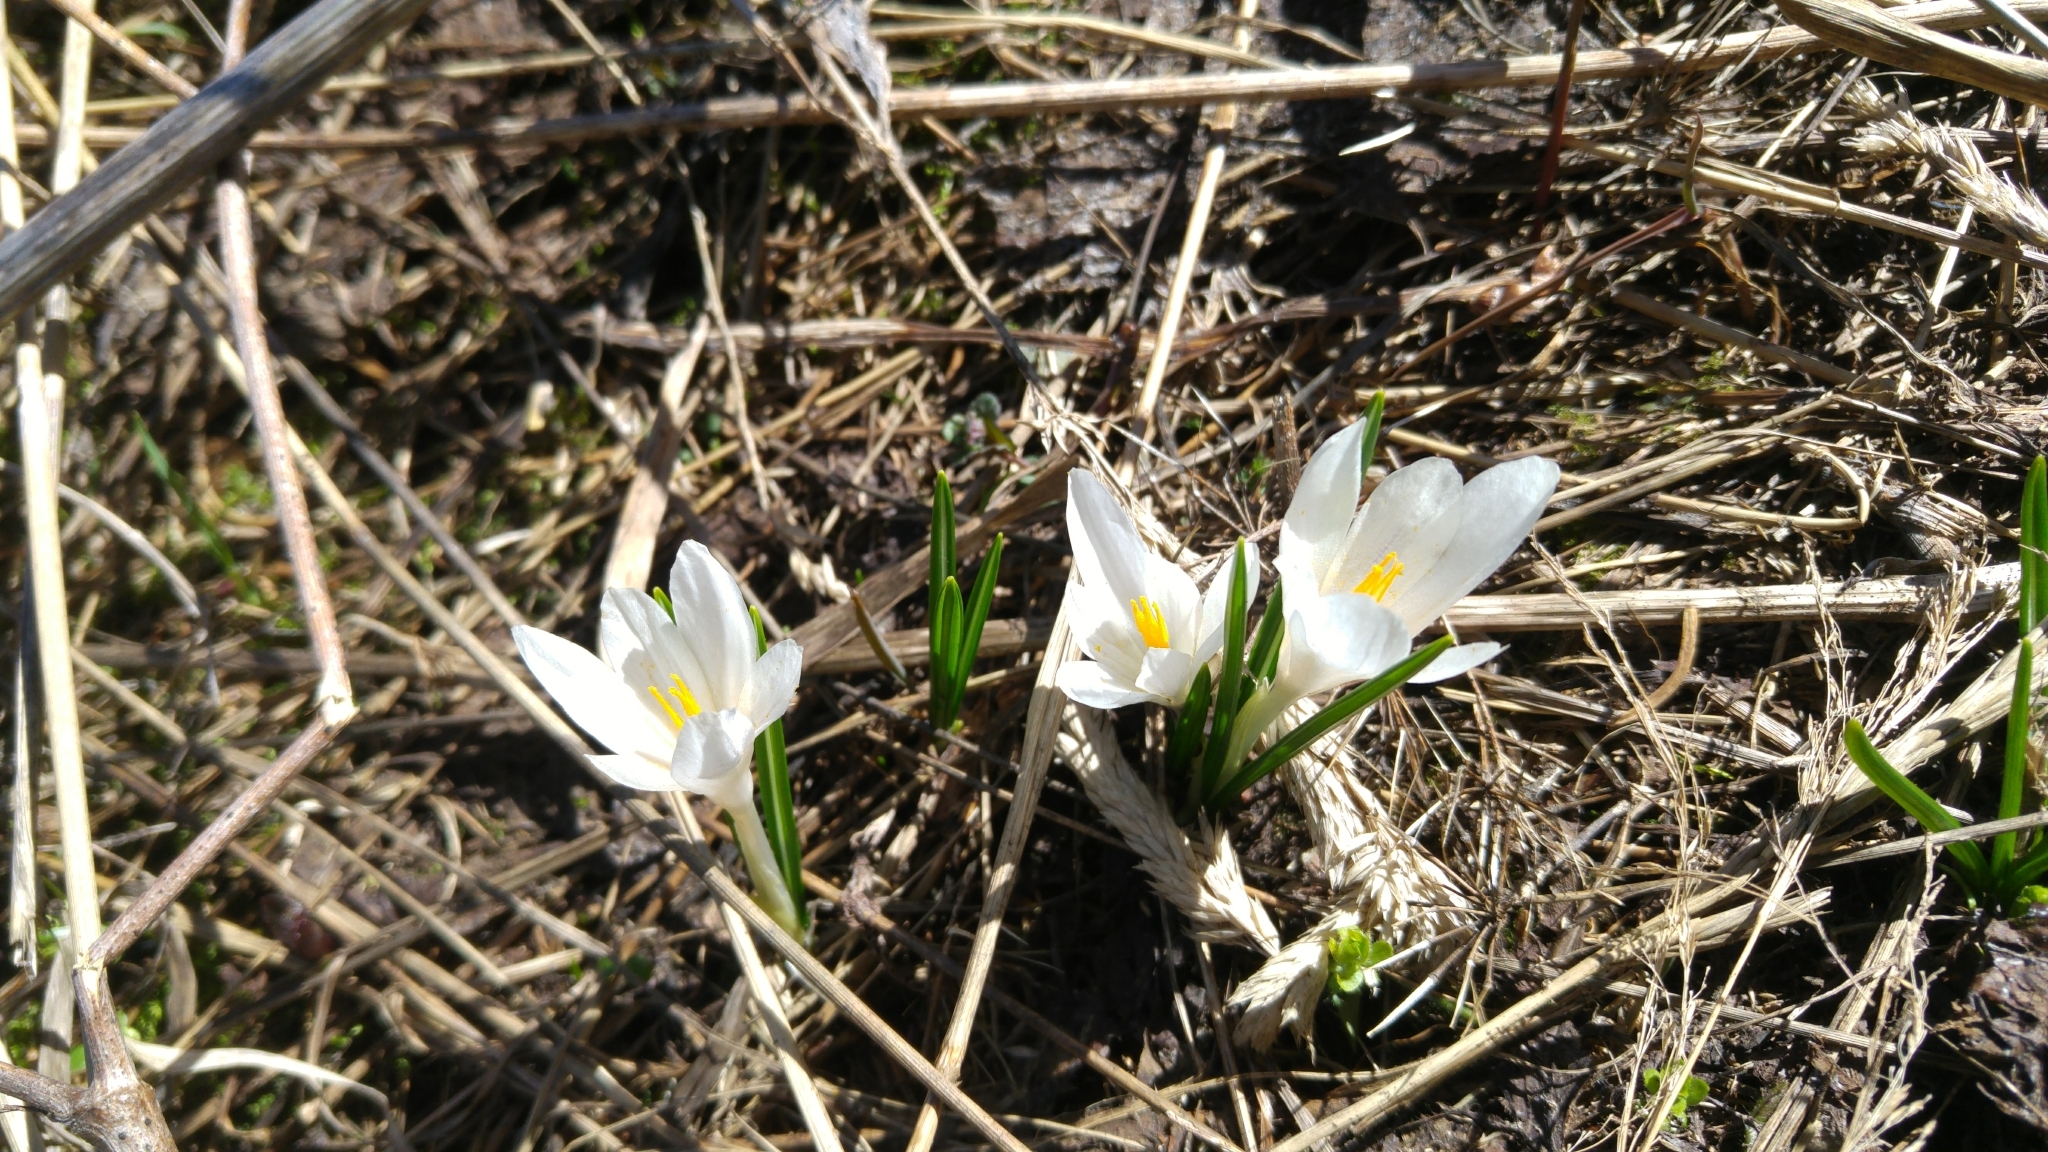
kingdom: Plantae
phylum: Tracheophyta
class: Liliopsida
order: Asparagales
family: Iridaceae
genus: Crocus
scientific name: Crocus vernus
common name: Spring crocus
